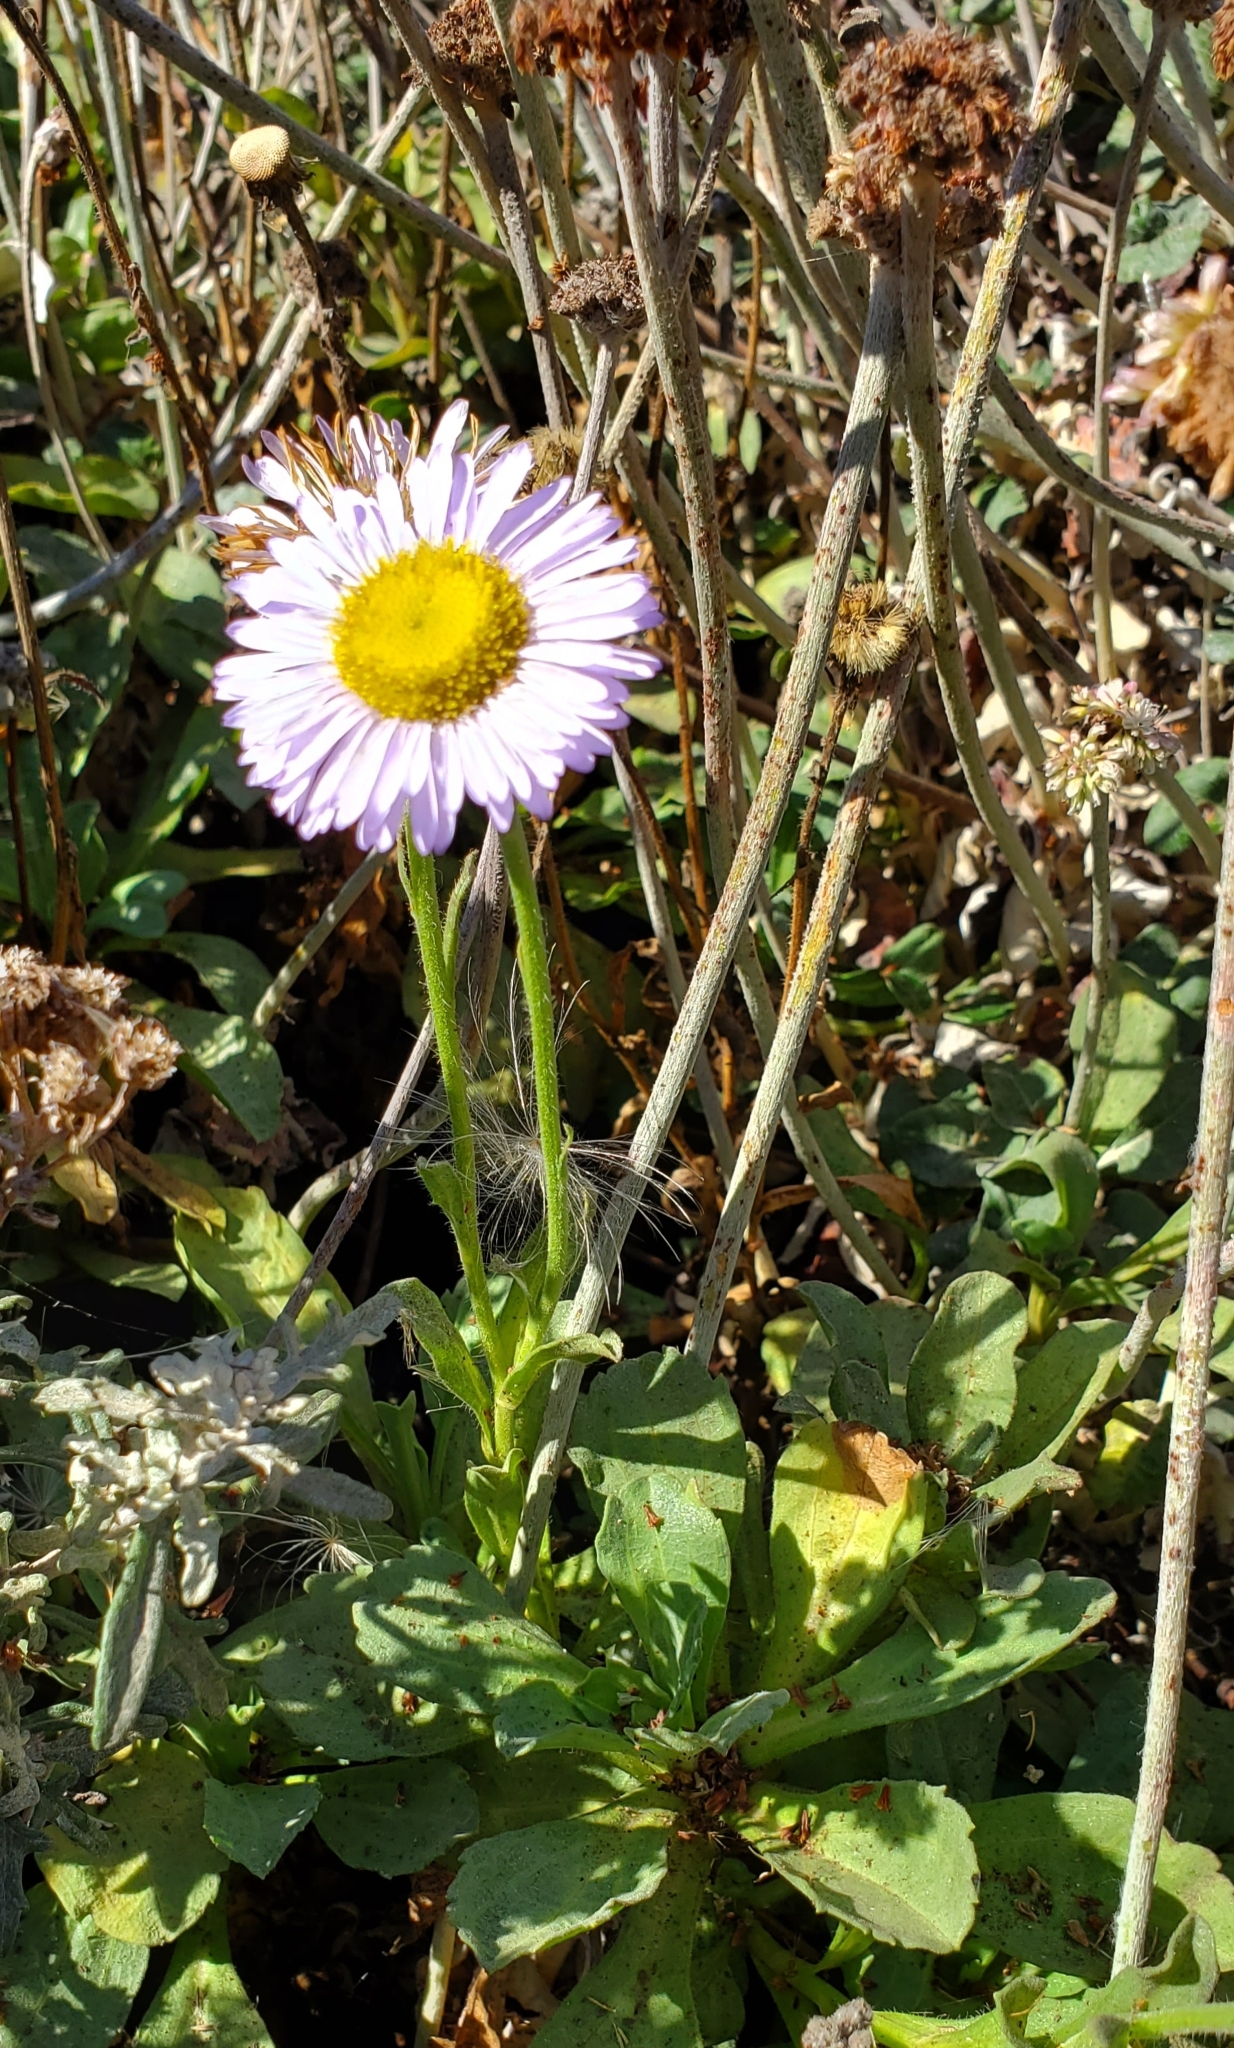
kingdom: Plantae
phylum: Tracheophyta
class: Magnoliopsida
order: Asterales
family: Asteraceae
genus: Erigeron
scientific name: Erigeron glaucus
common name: Seaside daisy
